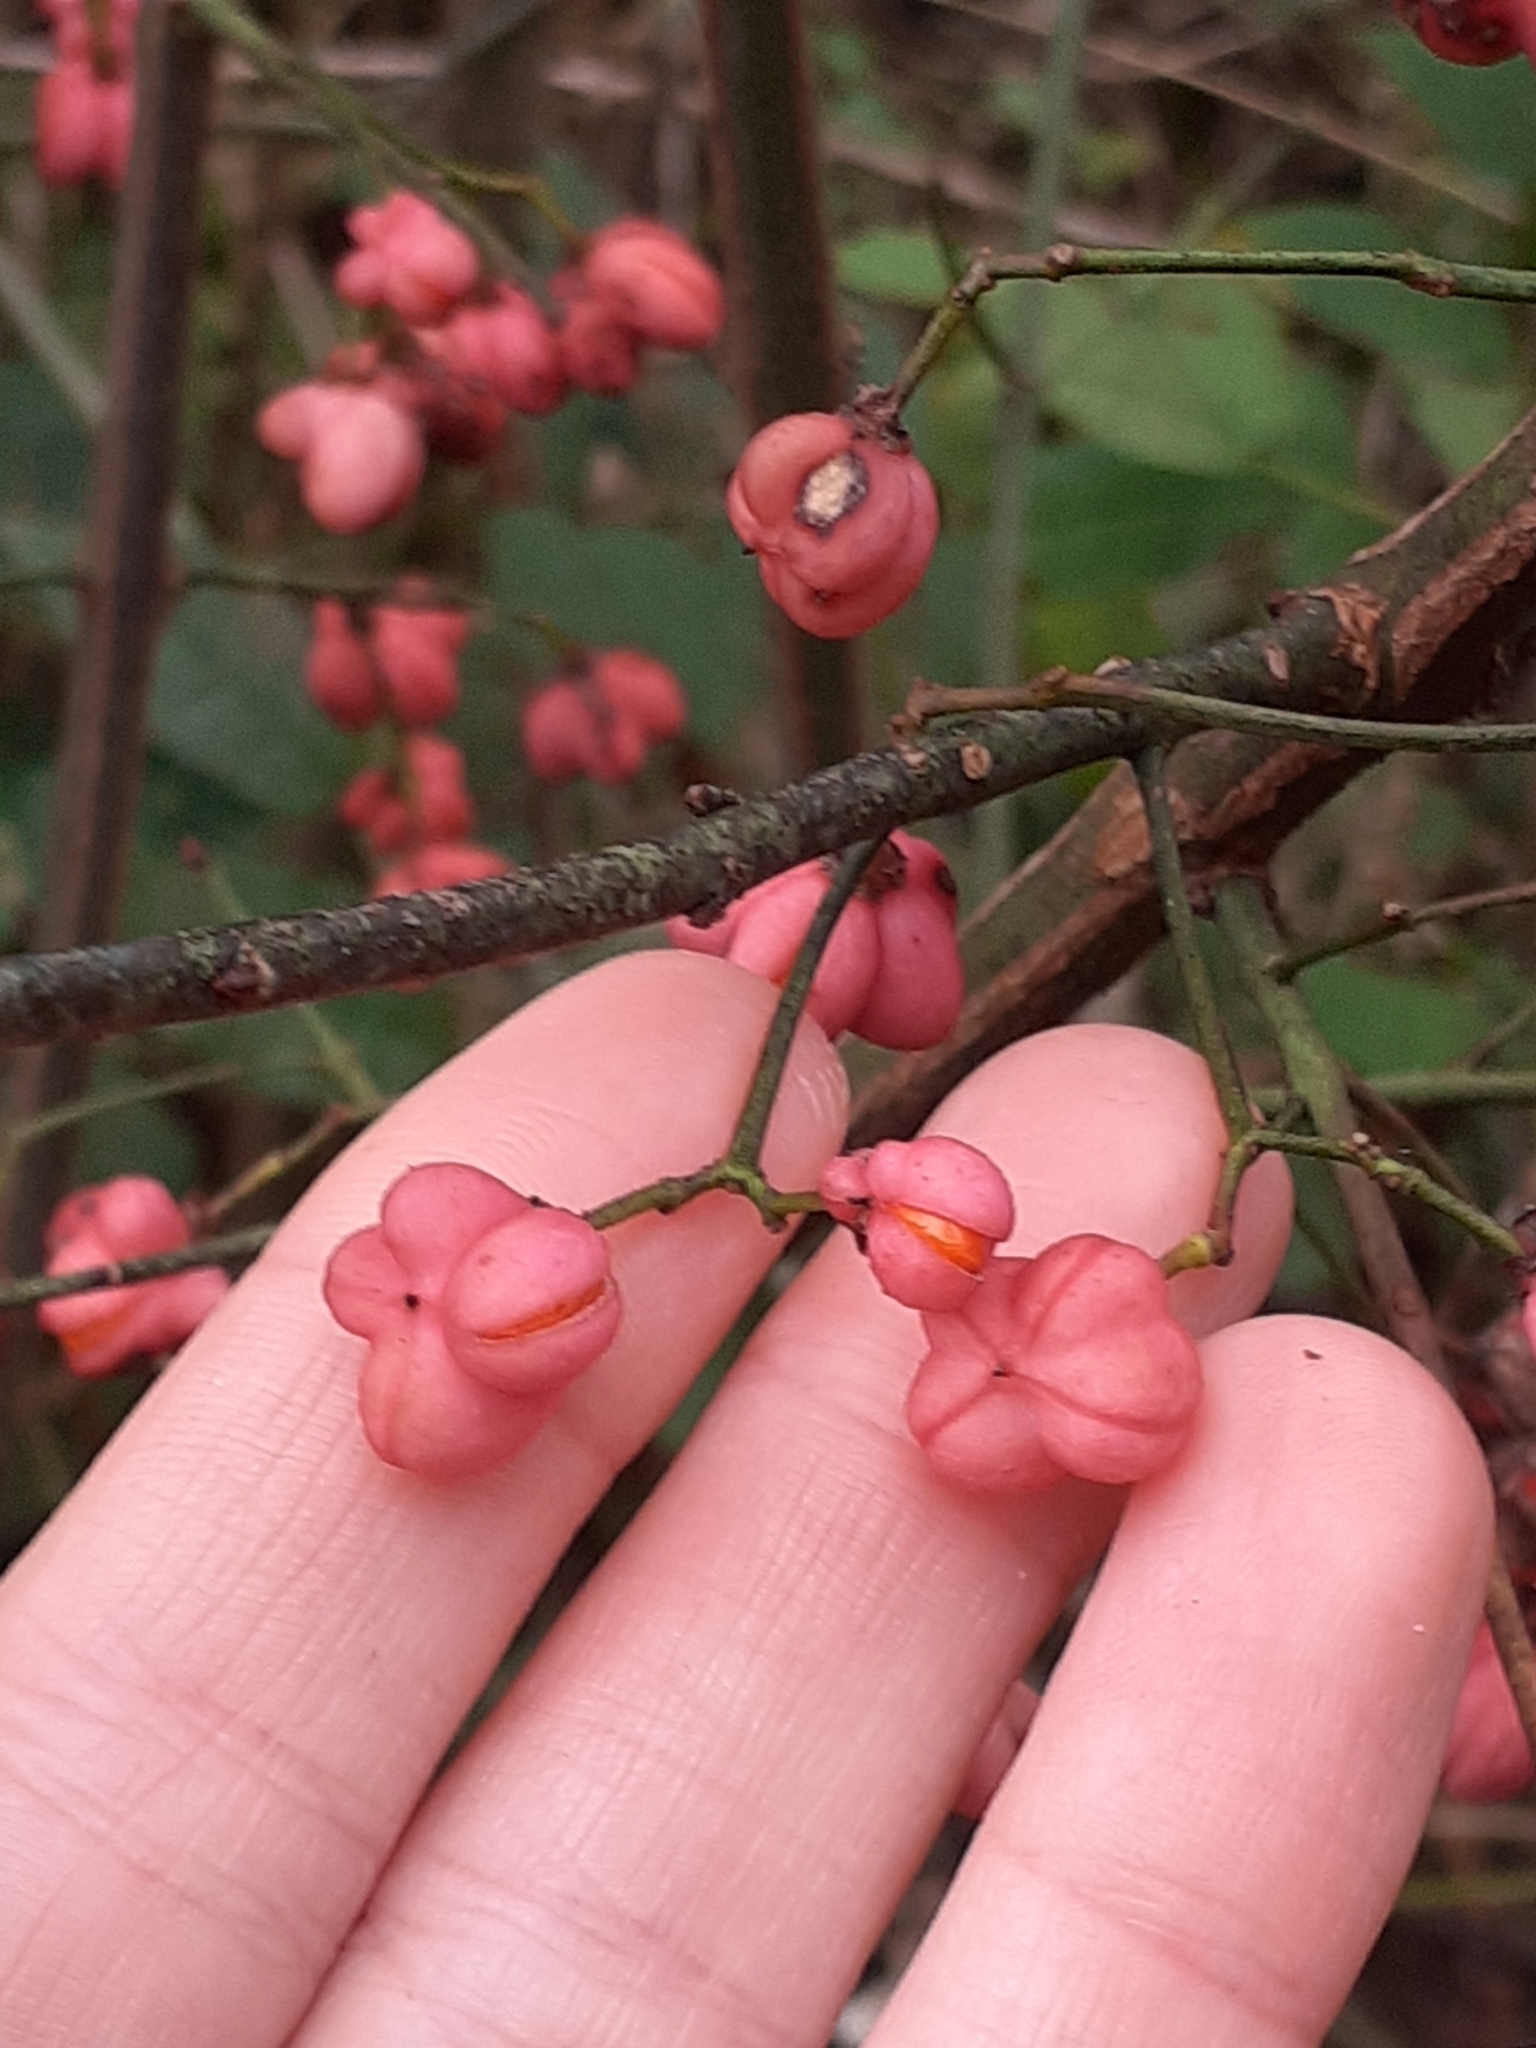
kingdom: Plantae
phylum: Tracheophyta
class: Magnoliopsida
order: Celastrales
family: Celastraceae
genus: Euonymus
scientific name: Euonymus europaeus
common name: Spindle
